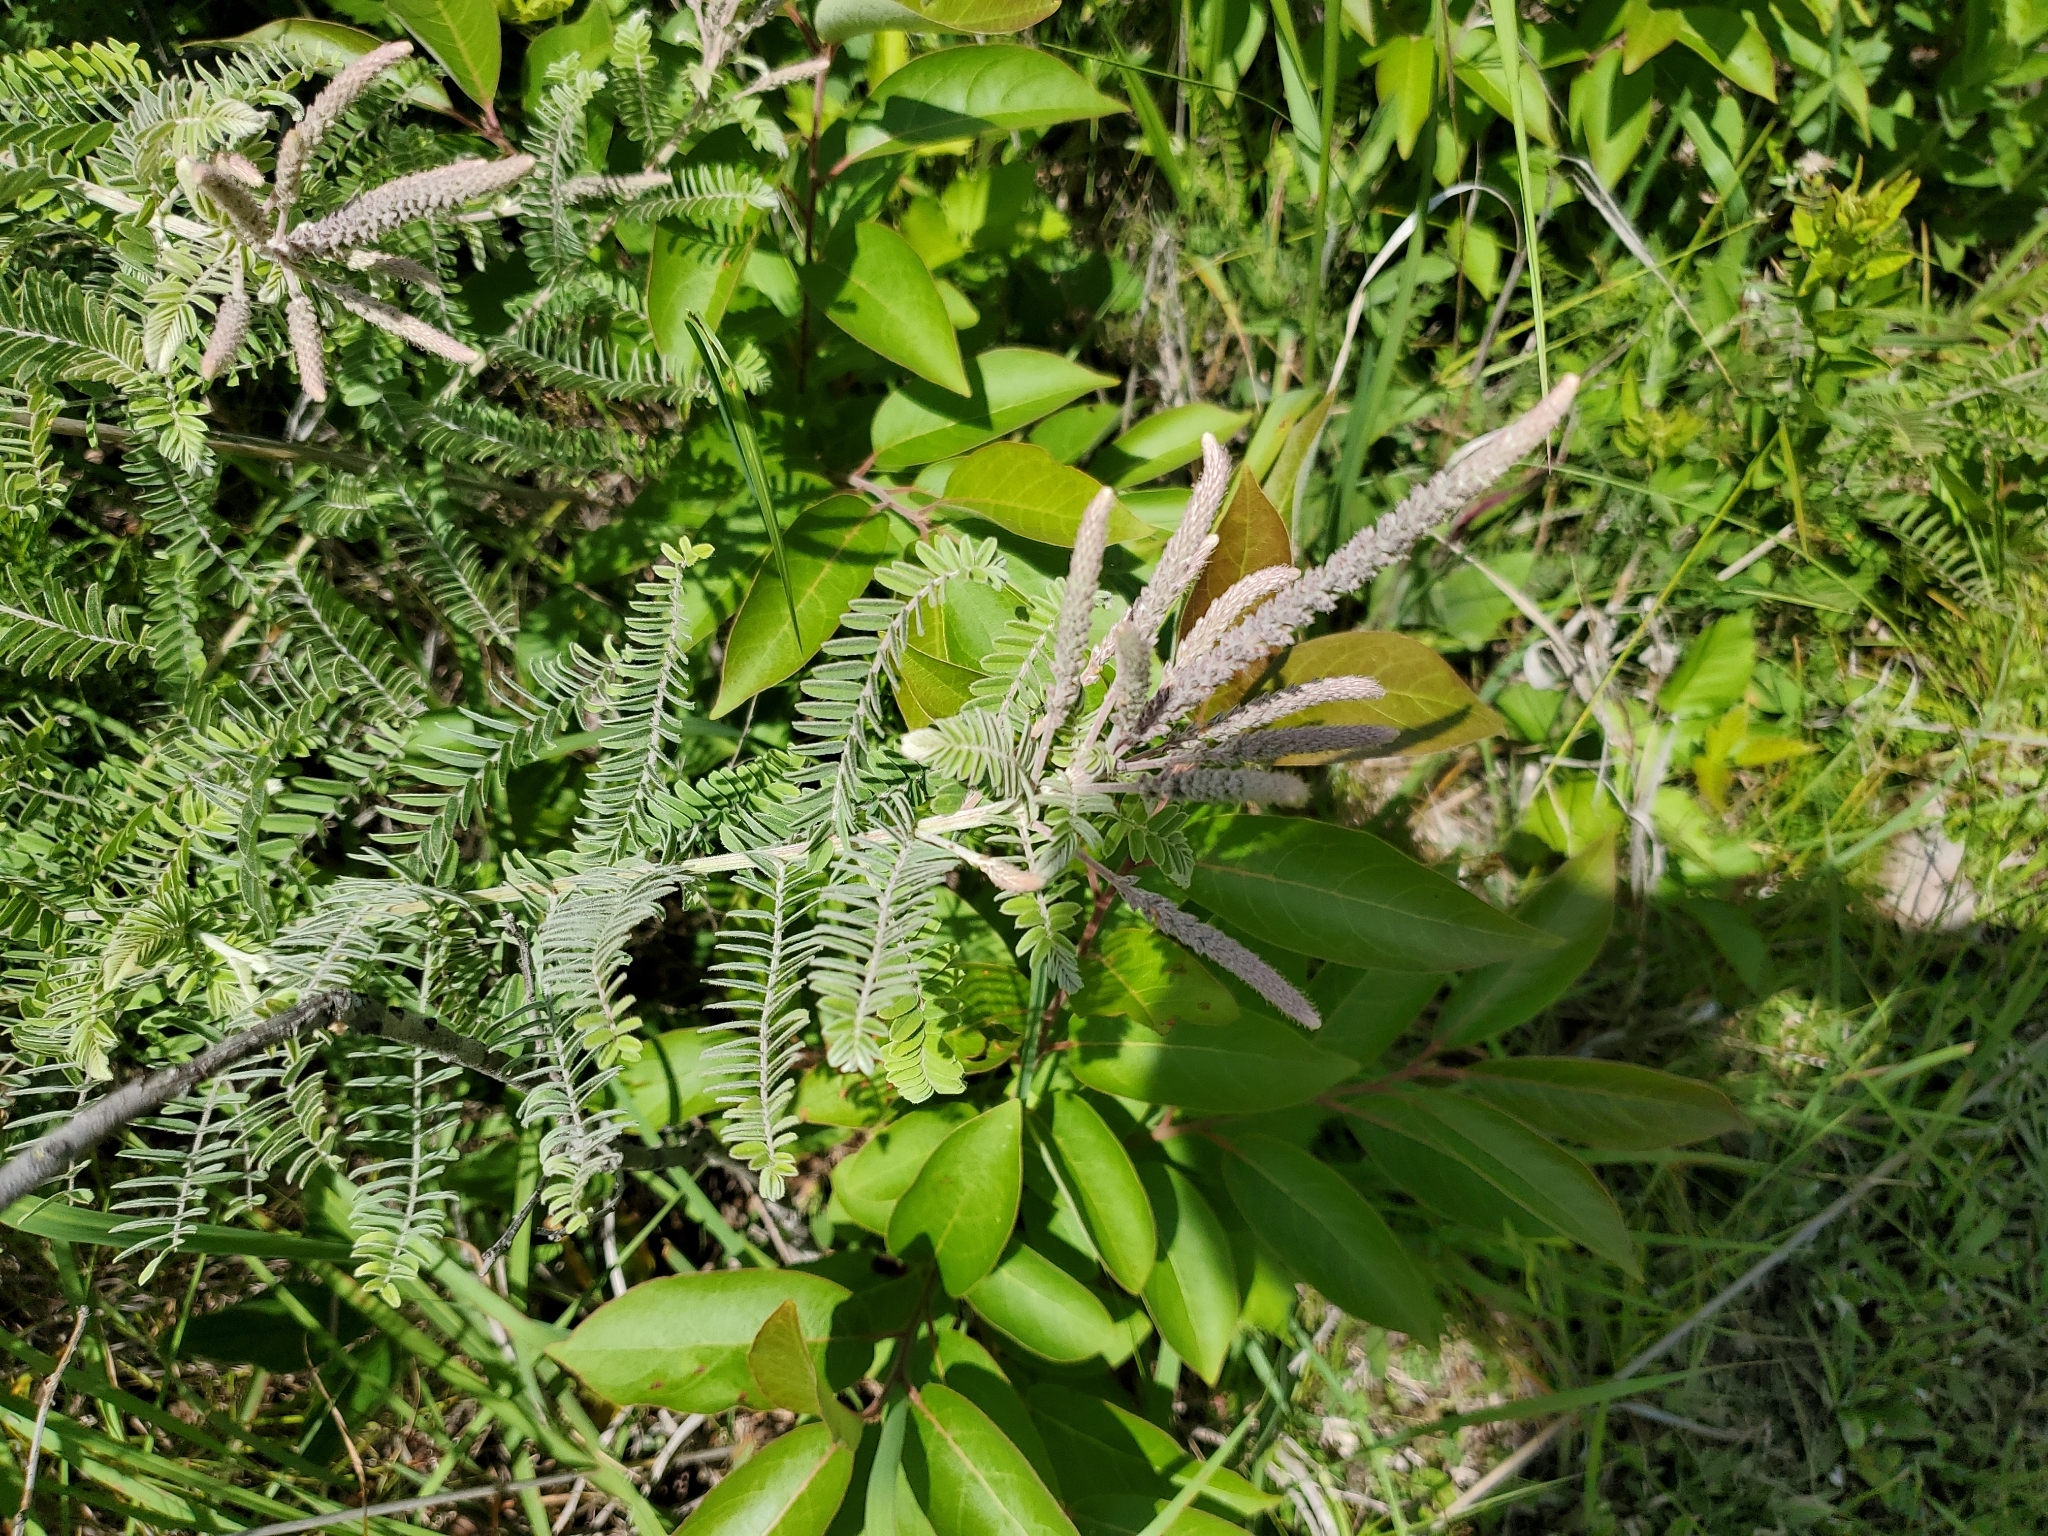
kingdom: Plantae
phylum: Tracheophyta
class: Magnoliopsida
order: Fabales
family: Fabaceae
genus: Amorpha
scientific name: Amorpha canescens
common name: Leadplant
